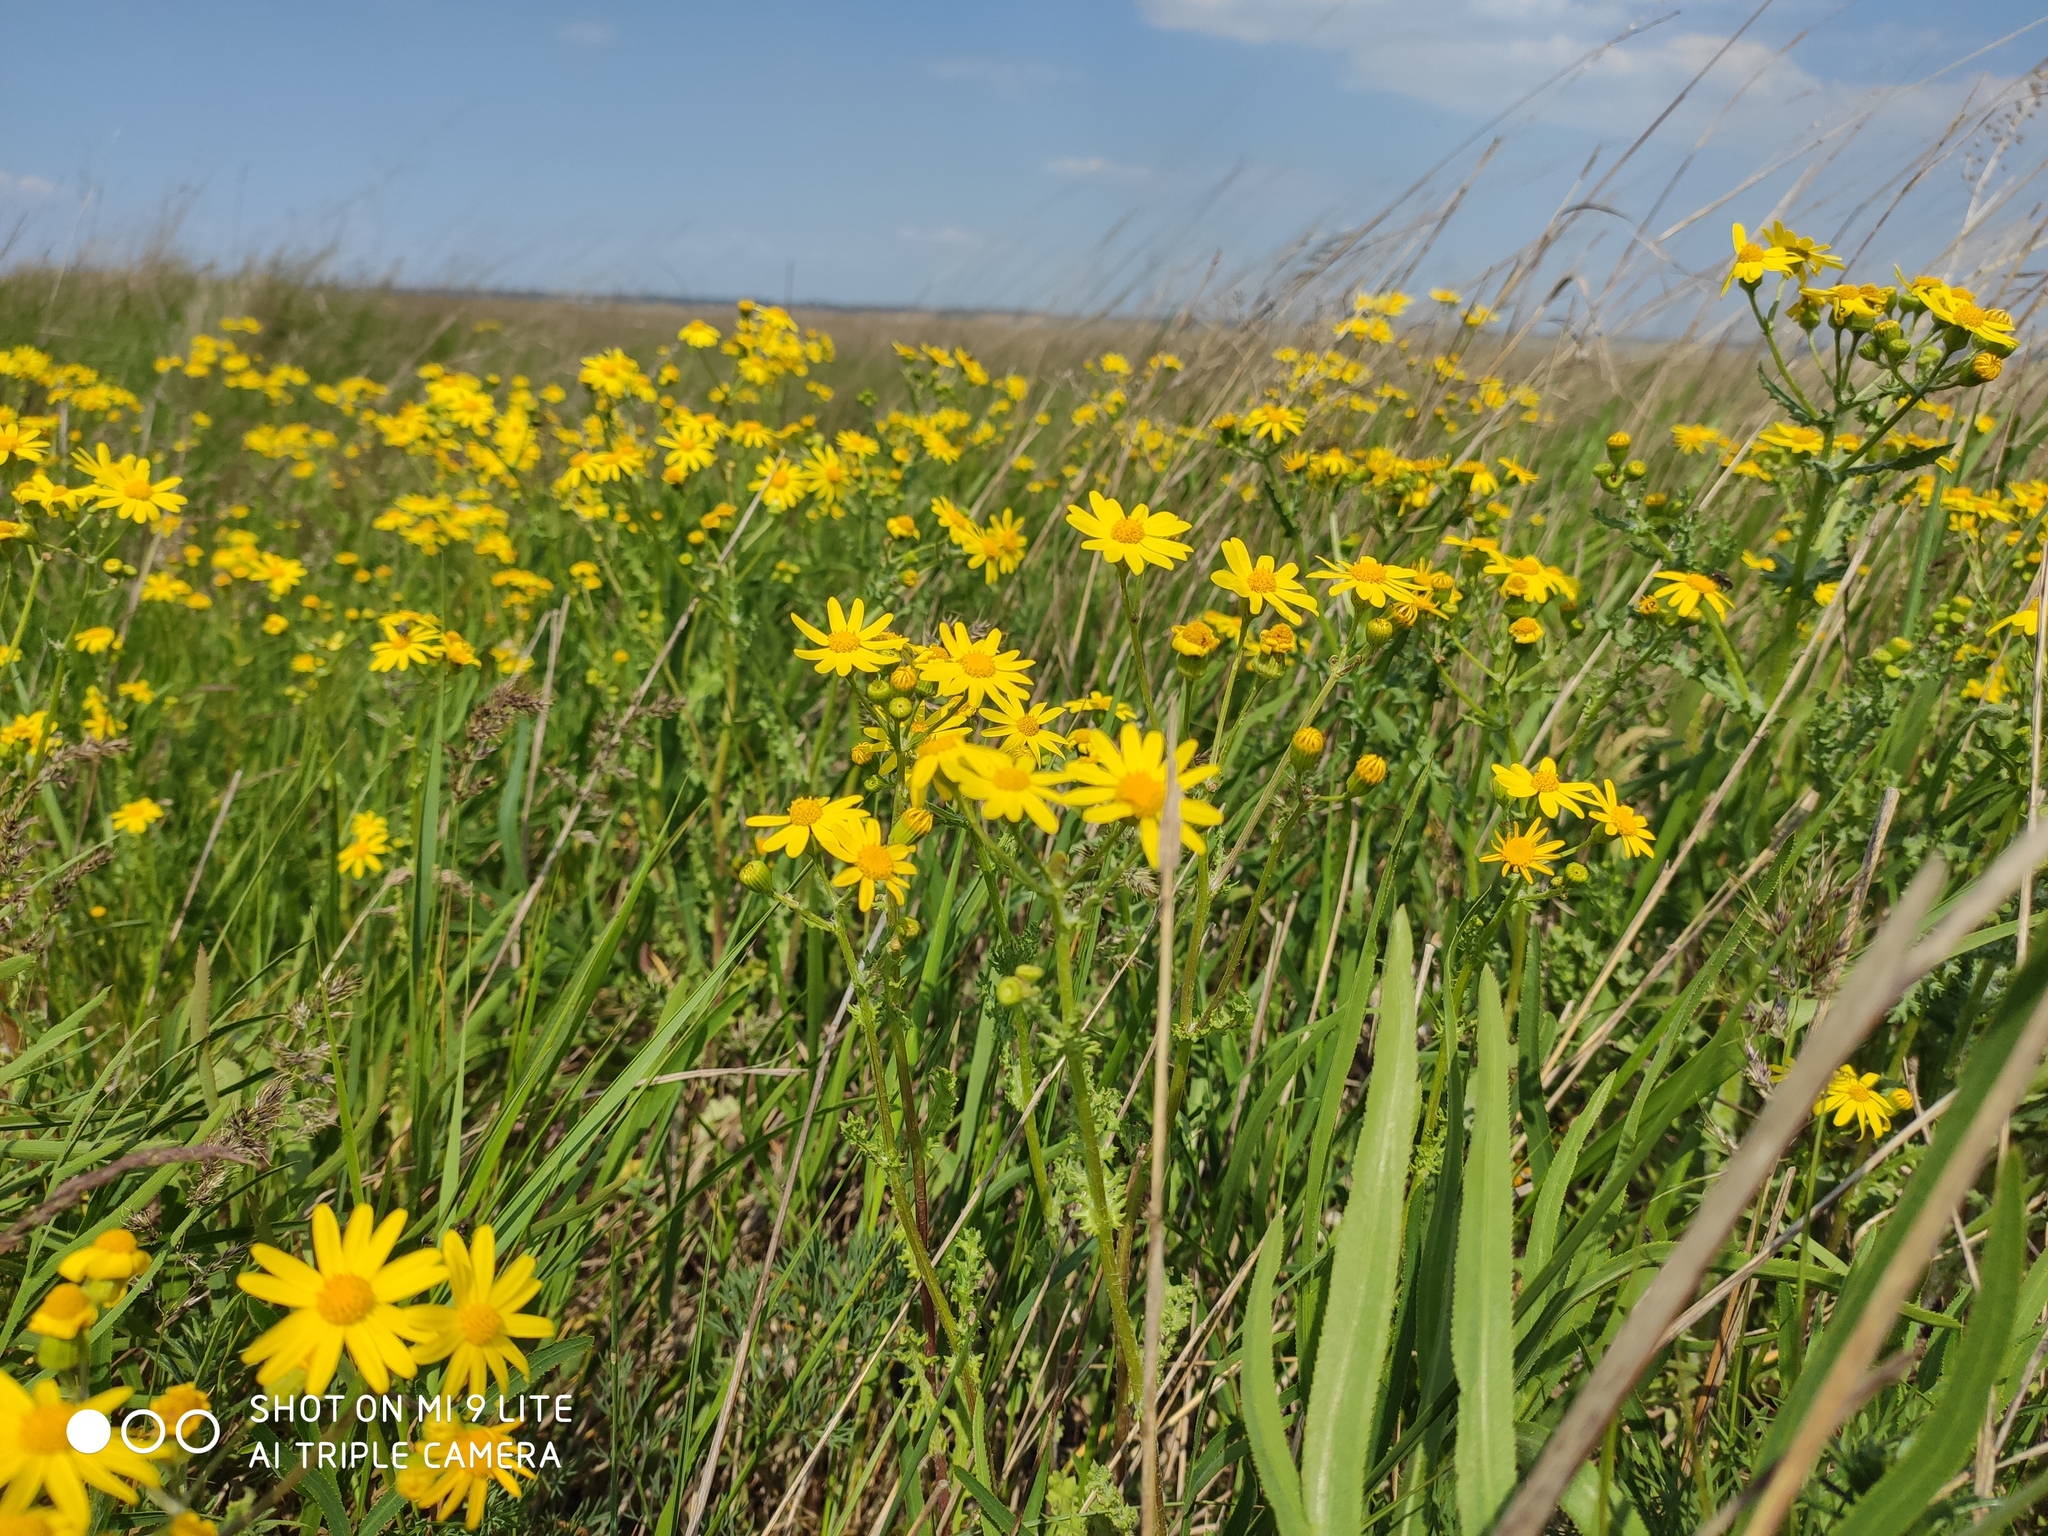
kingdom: Plantae
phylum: Tracheophyta
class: Magnoliopsida
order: Asterales
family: Asteraceae
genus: Senecio
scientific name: Senecio vernalis
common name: Eastern groundsel
